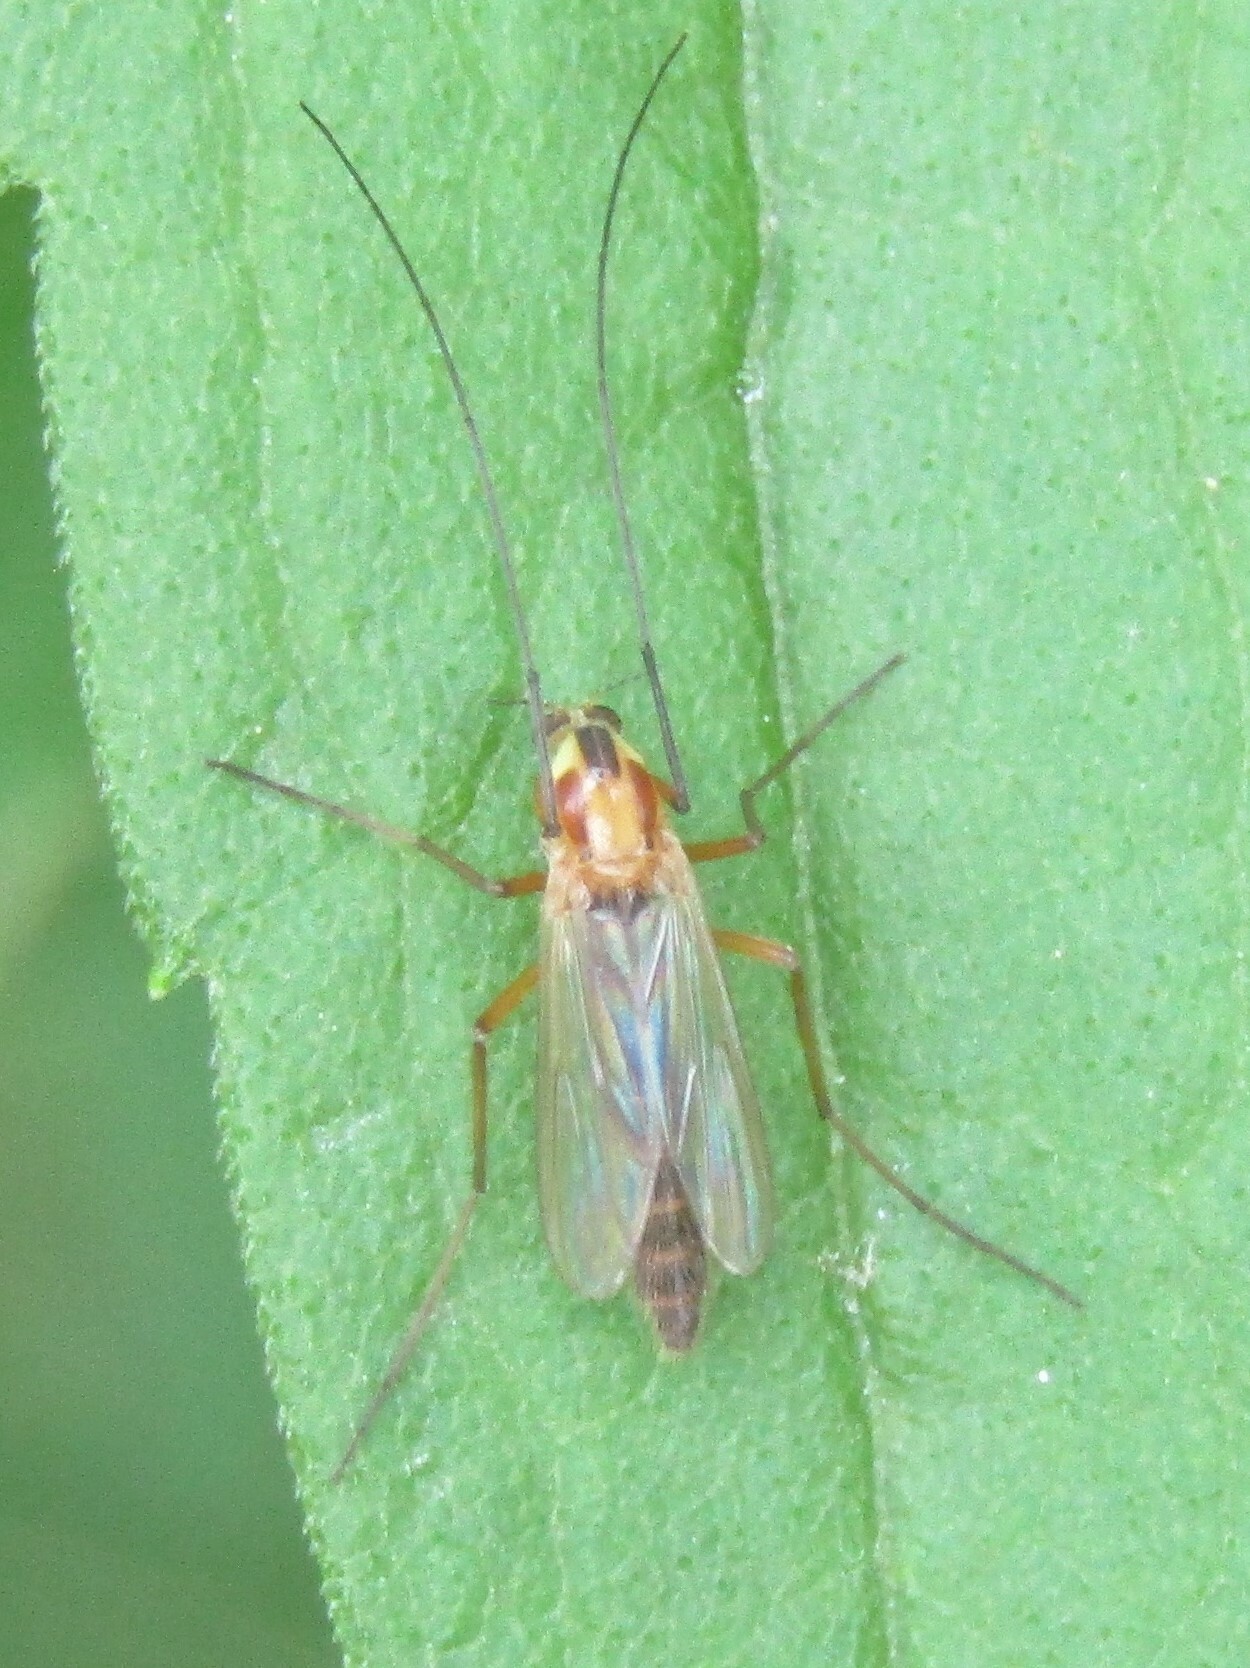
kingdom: Animalia
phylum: Arthropoda
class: Insecta
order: Diptera
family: Chironomidae
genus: Chironomus
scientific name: Chironomus ochreatus
